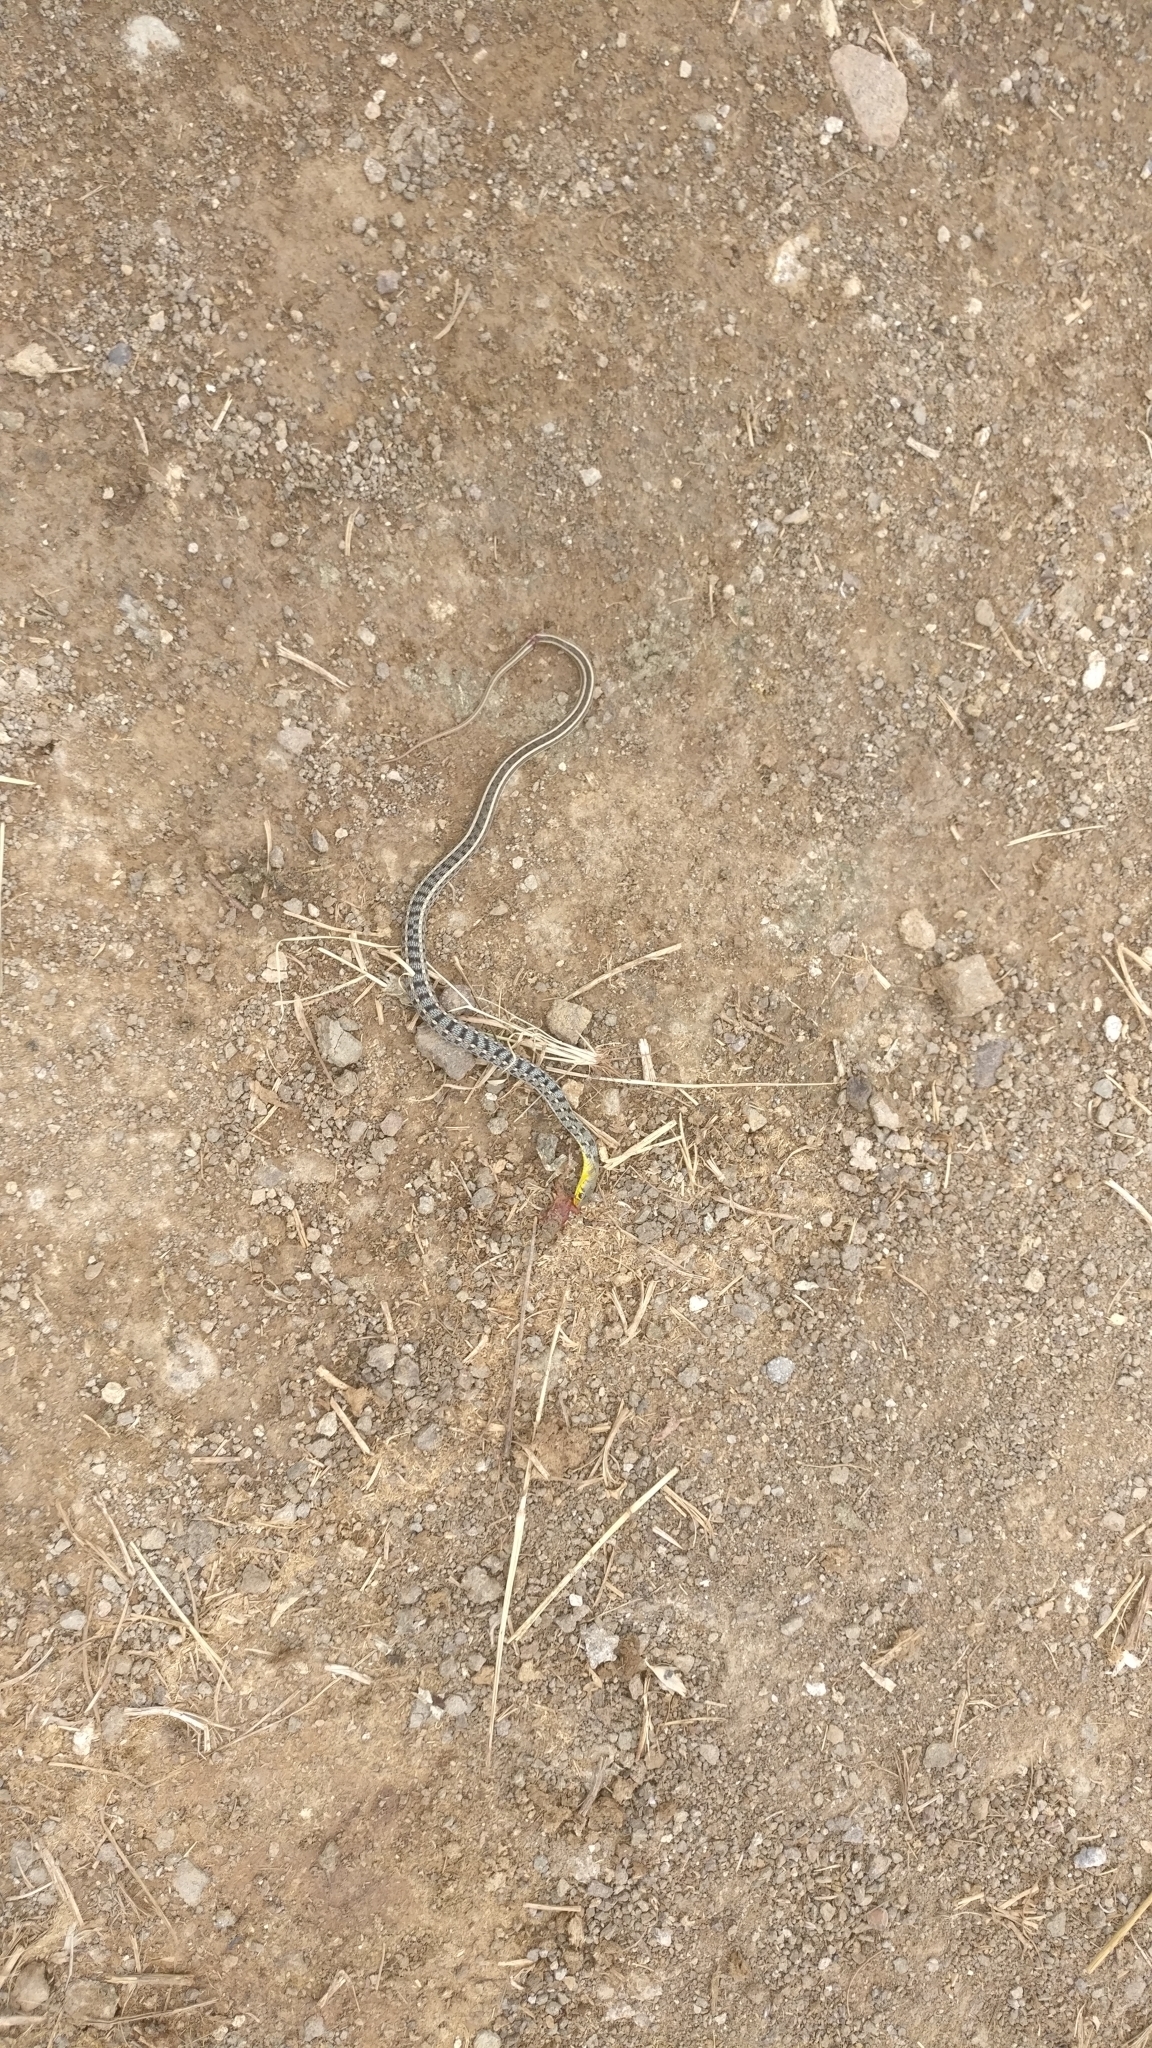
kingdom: Animalia
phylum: Chordata
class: Squamata
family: Colubridae
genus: Amphiesma
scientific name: Amphiesma stolatum
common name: Buff striped keelback
